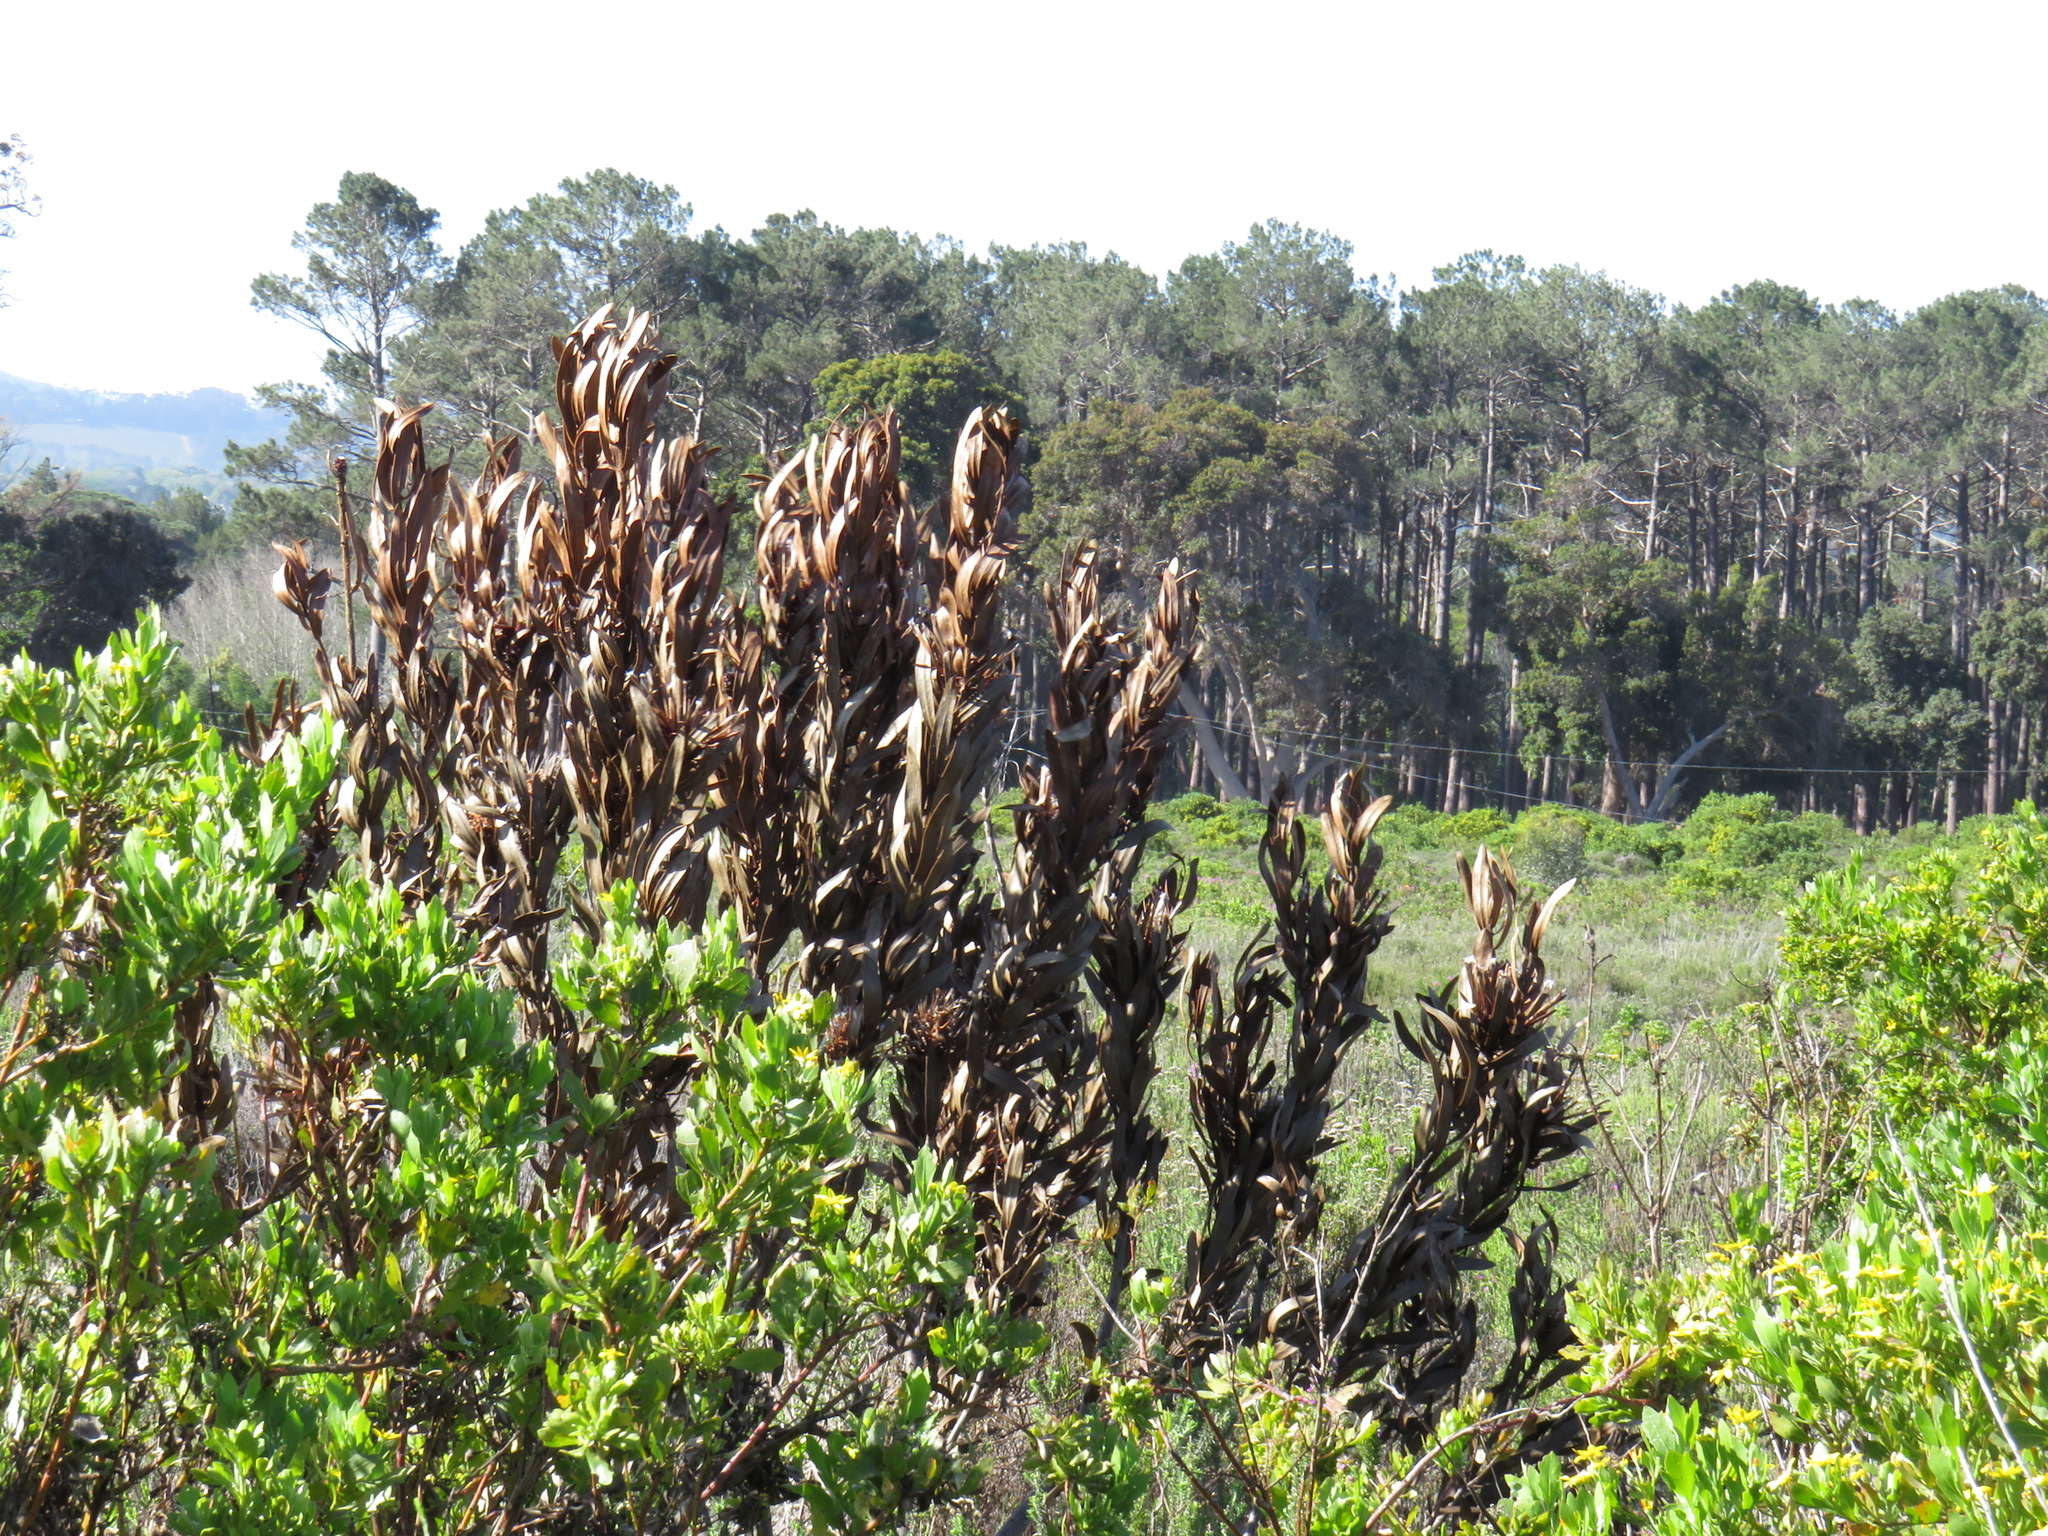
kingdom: Plantae
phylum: Tracheophyta
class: Magnoliopsida
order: Proteales
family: Proteaceae
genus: Protea
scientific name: Protea lepidocarpodendron
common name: Black-bearded protea
